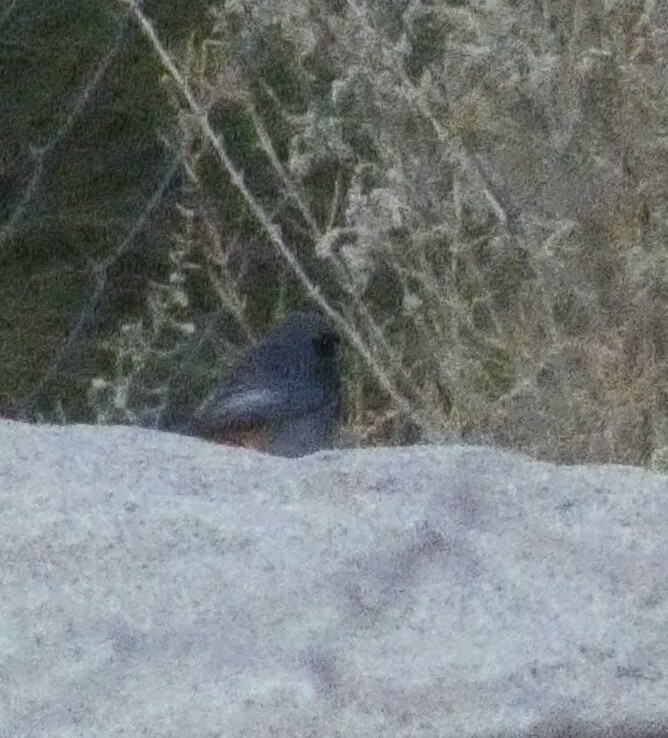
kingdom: Animalia
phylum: Chordata
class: Aves
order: Passeriformes
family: Muscicapidae
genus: Phoenicurus
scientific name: Phoenicurus ochruros
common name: Black redstart
